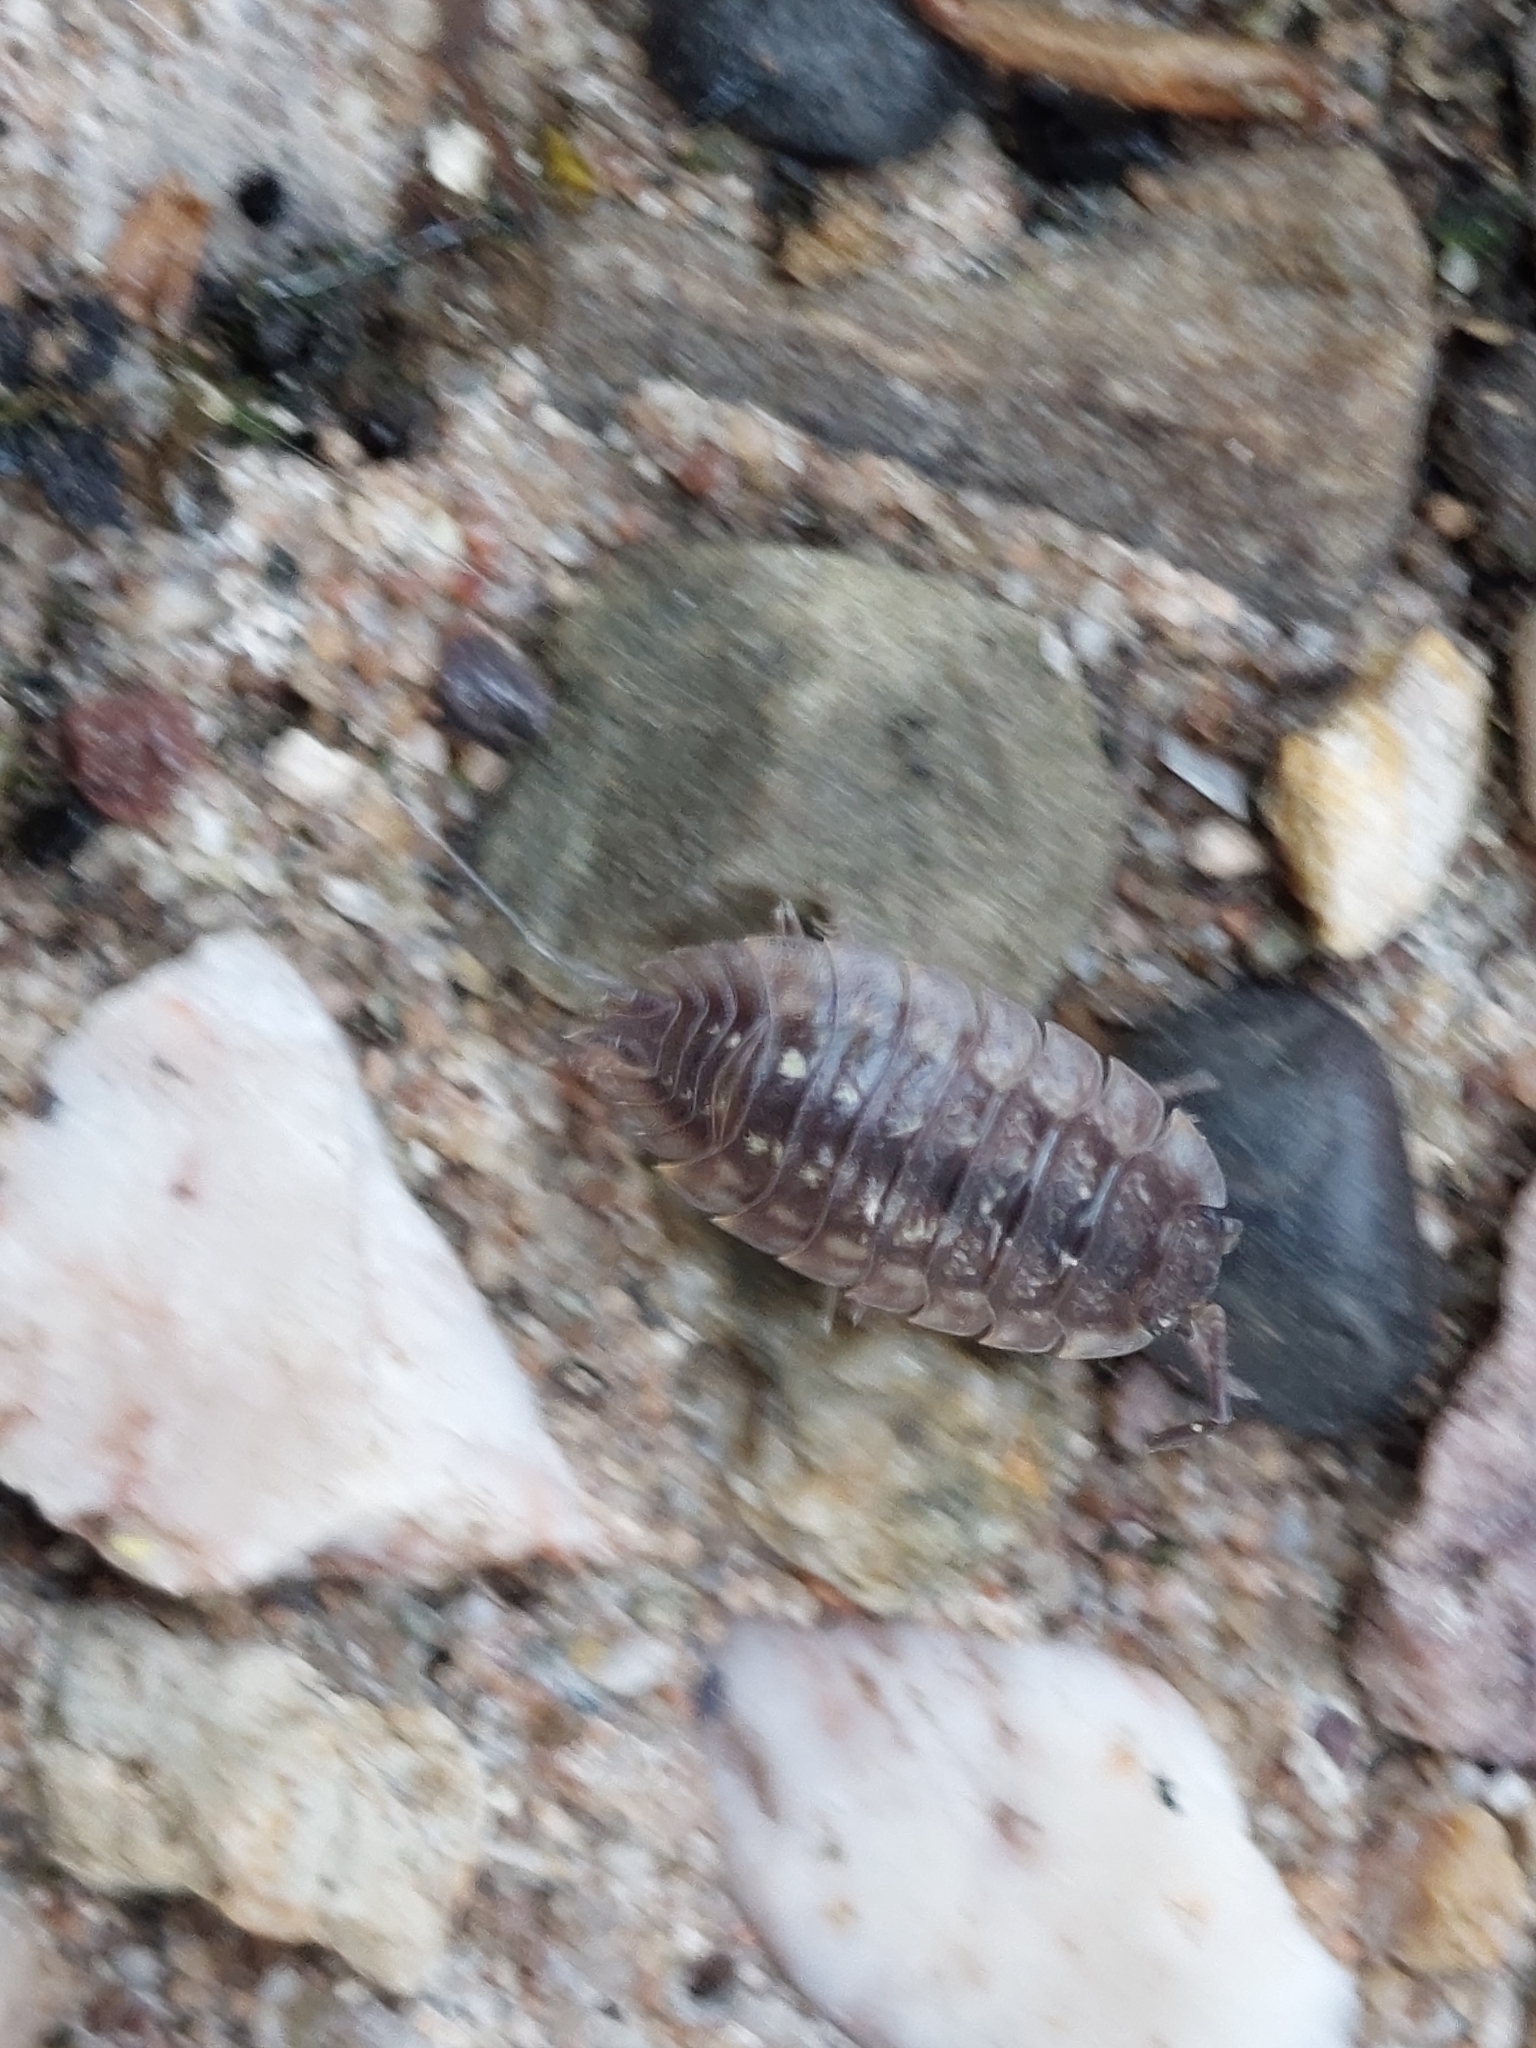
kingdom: Animalia
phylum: Arthropoda
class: Malacostraca
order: Isopoda
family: Oniscidae
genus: Oniscus
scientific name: Oniscus asellus
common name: Common shiny woodlouse
